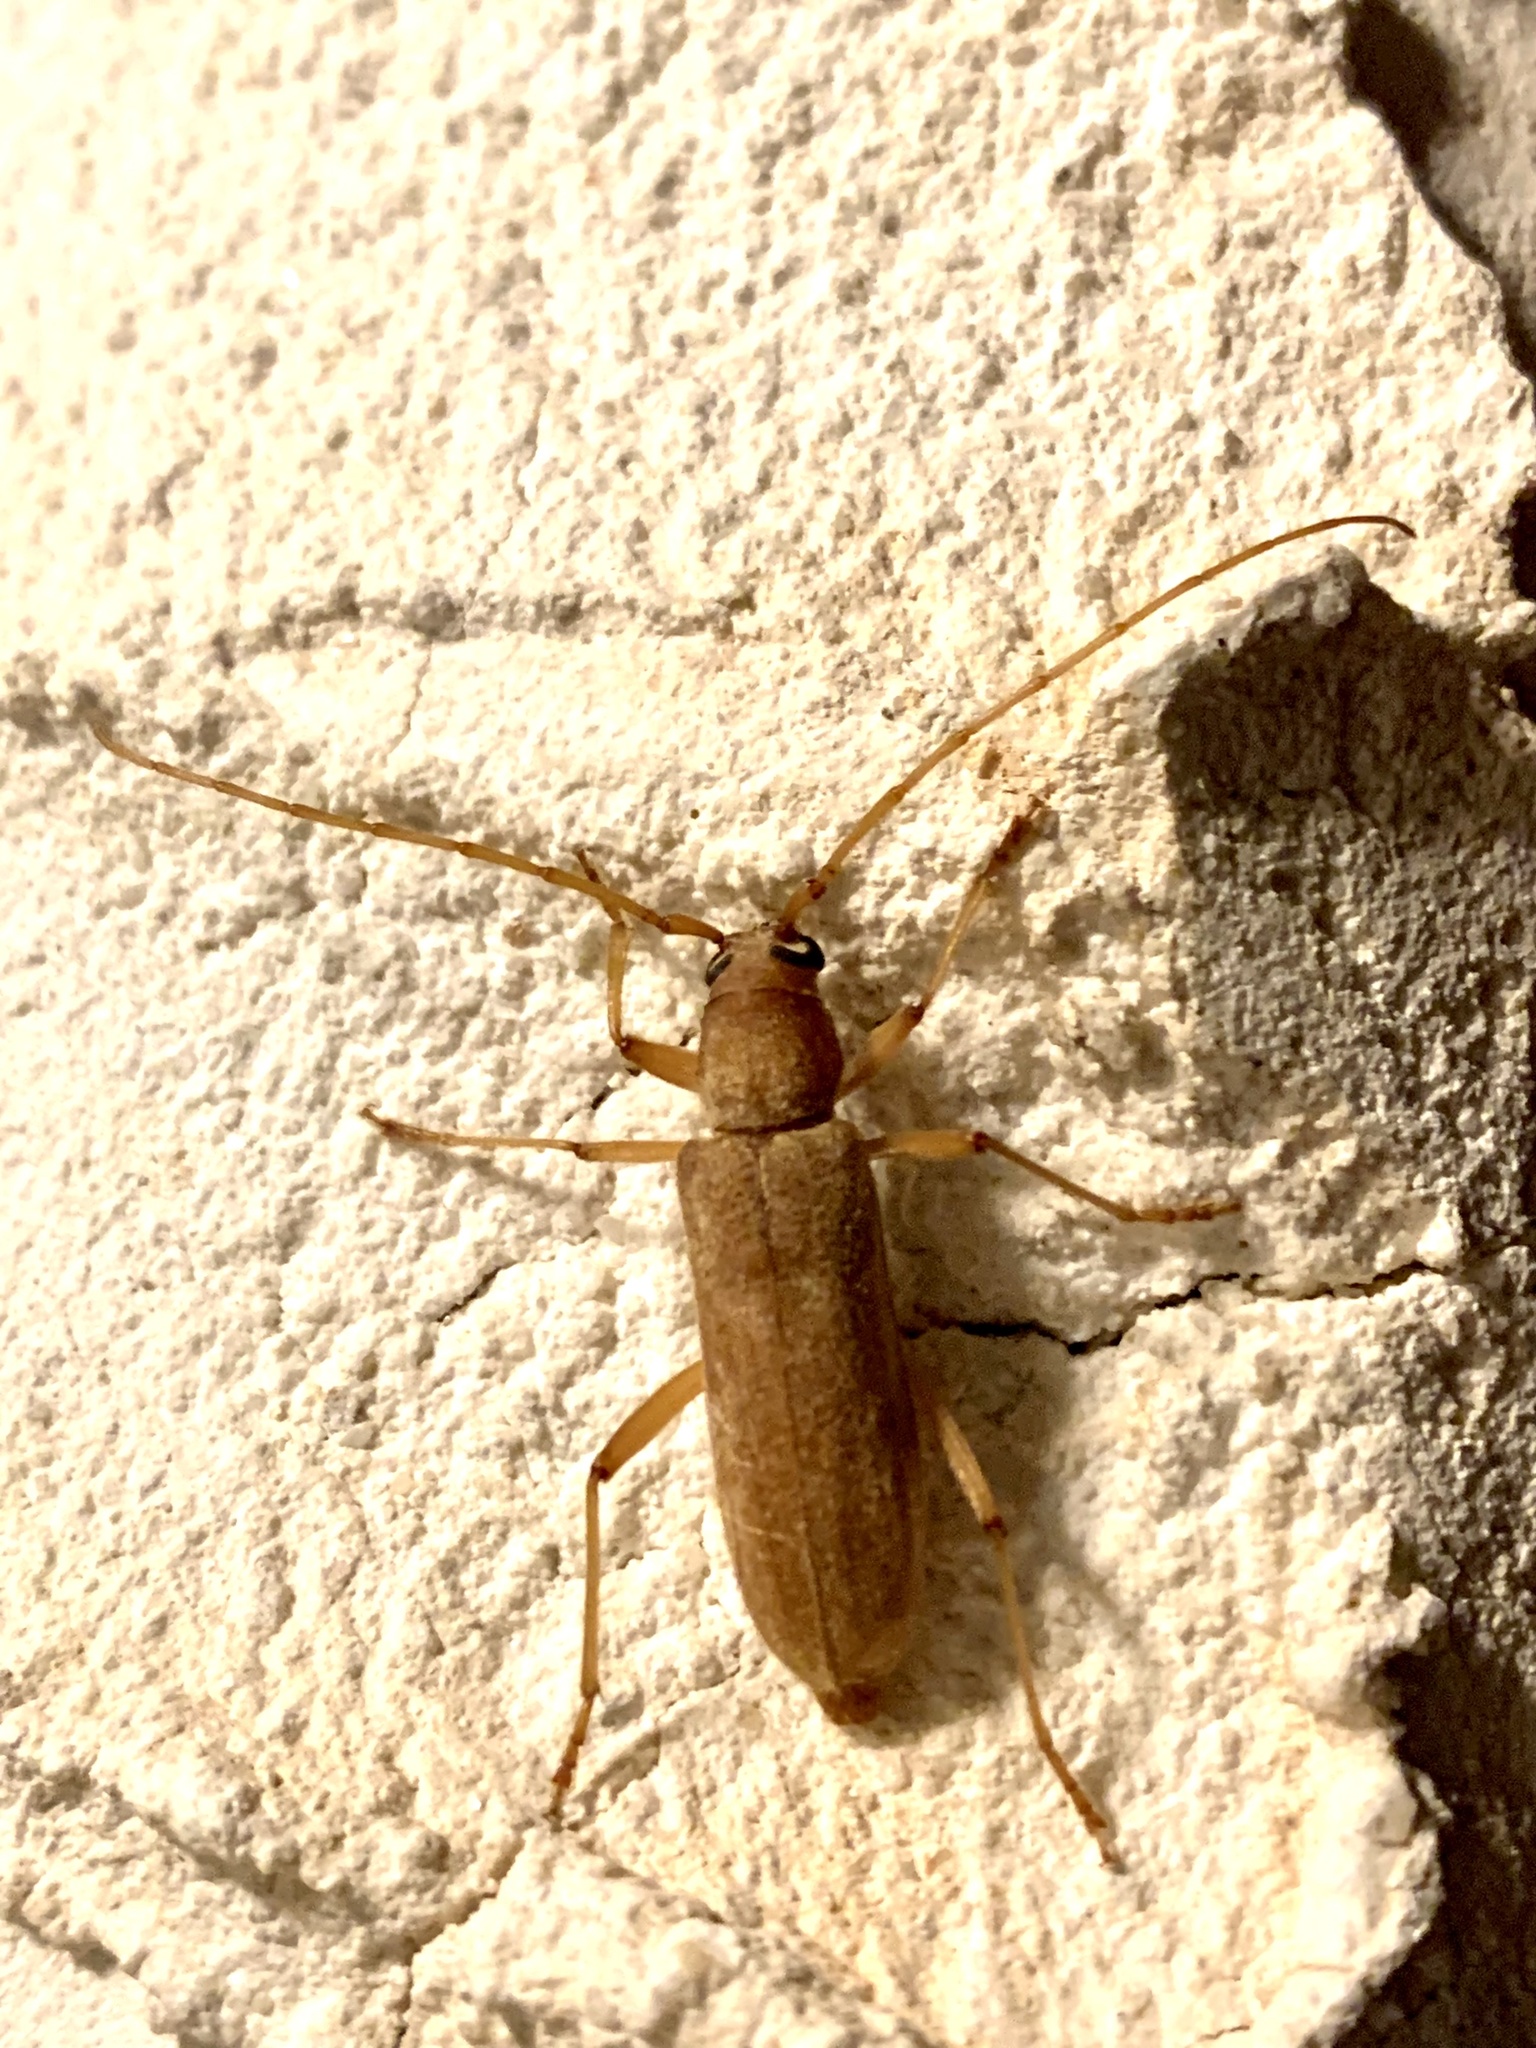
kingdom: Animalia
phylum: Arthropoda
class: Insecta
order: Coleoptera
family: Cerambycidae
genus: Stromatium
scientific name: Stromatium auratum
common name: Long-horned beetle
